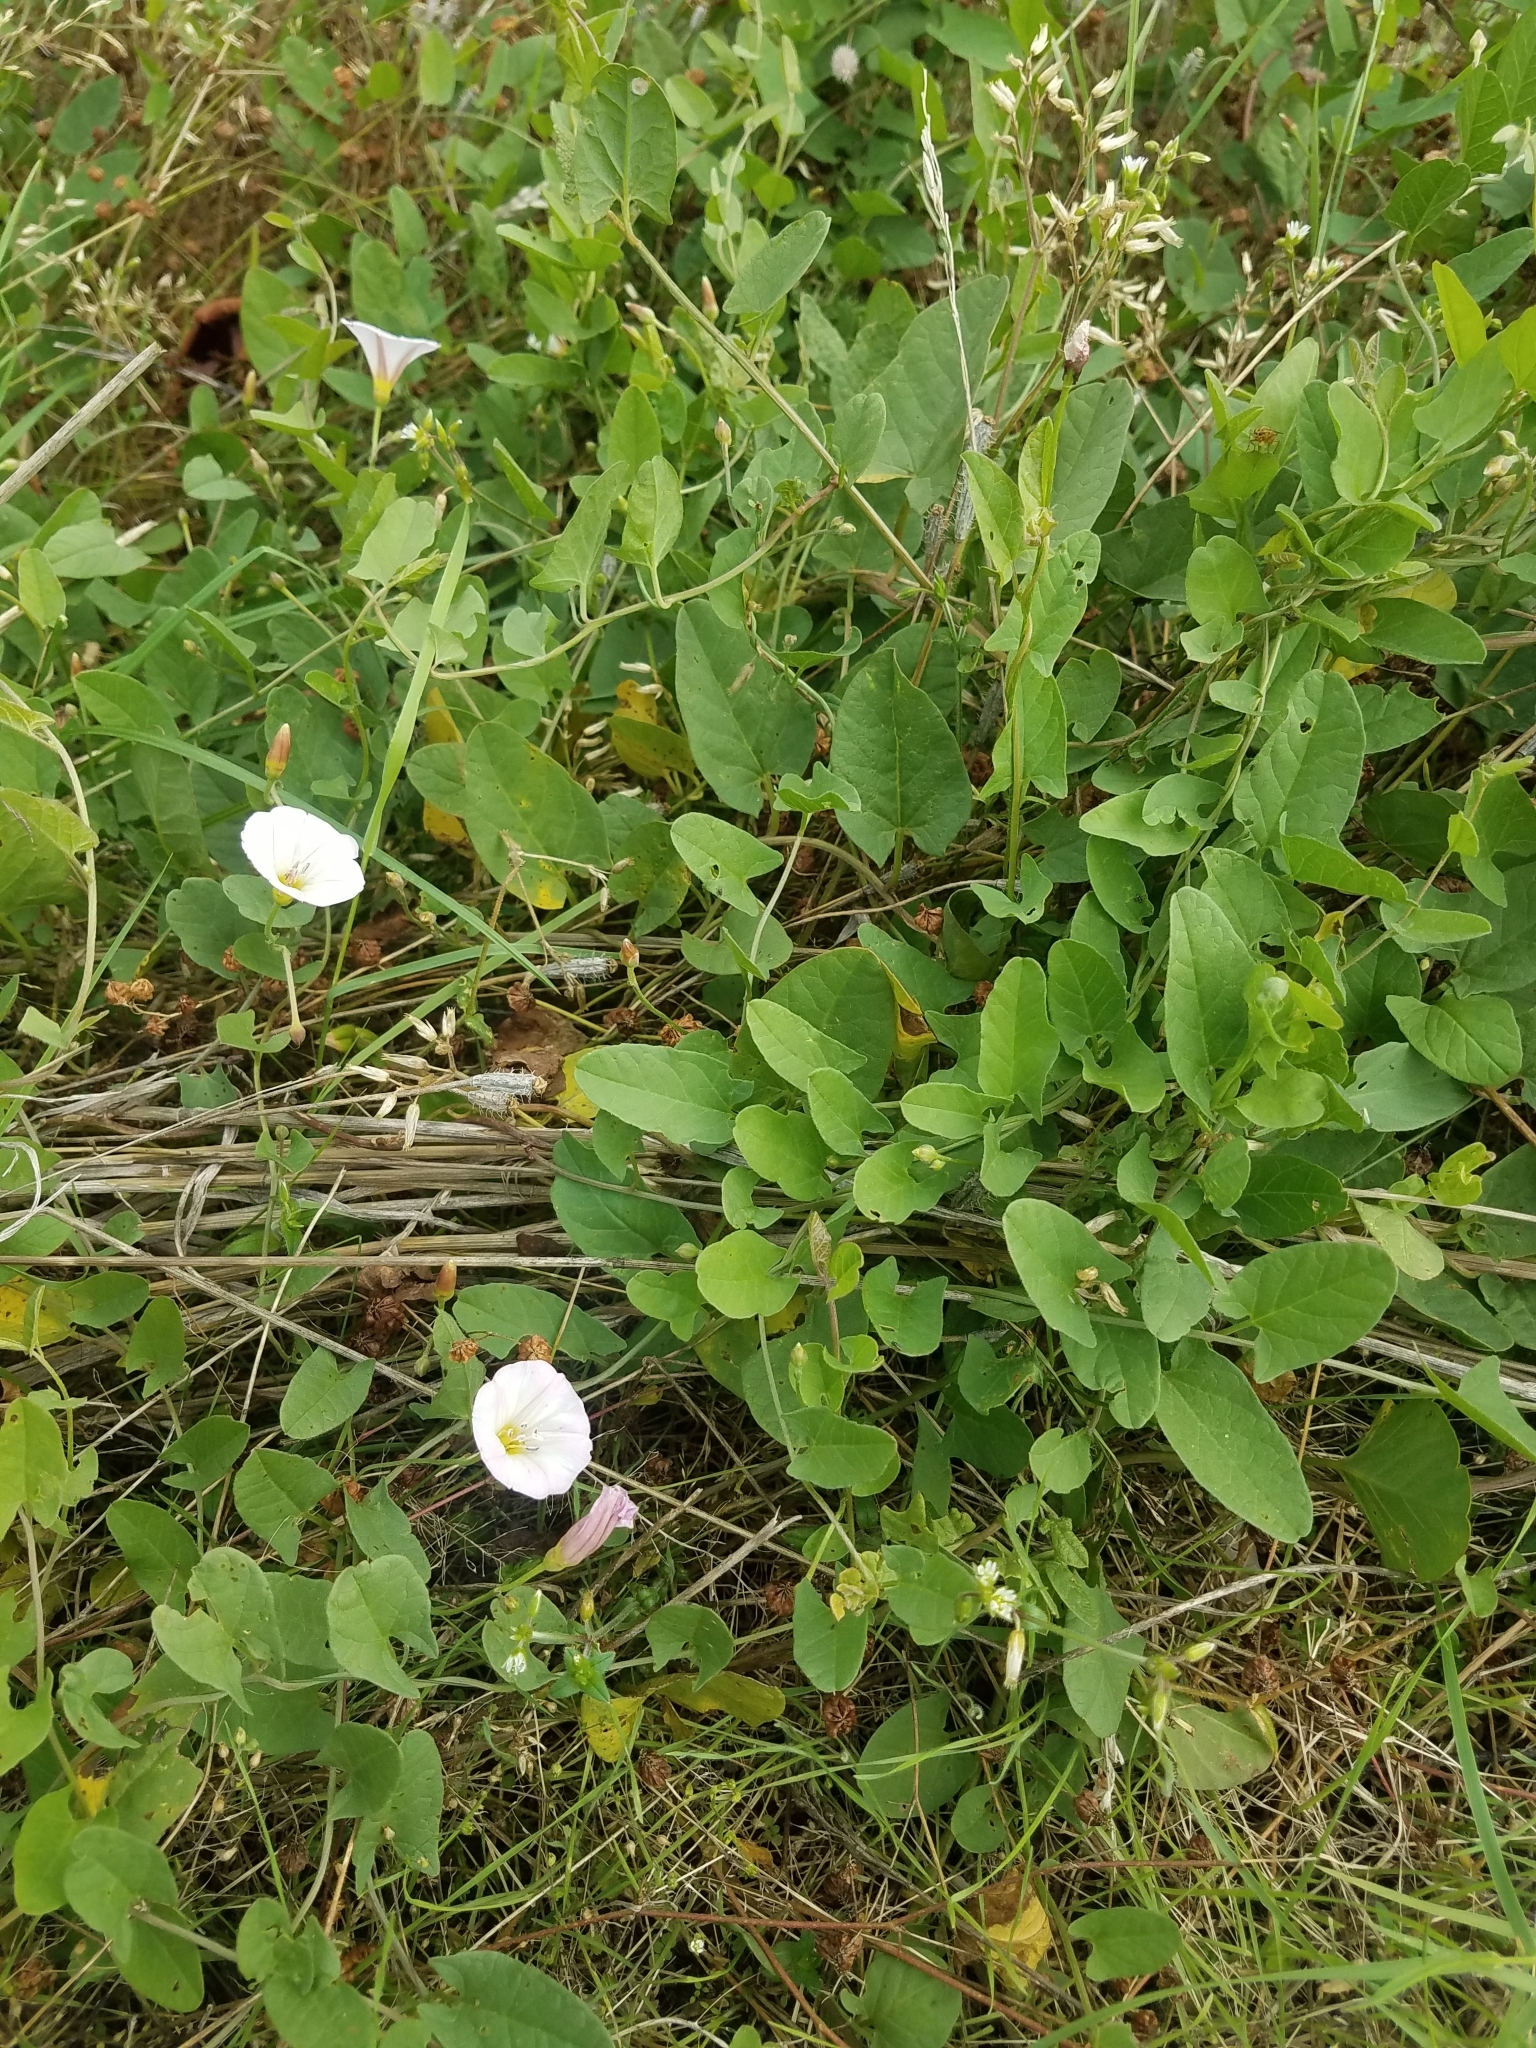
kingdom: Plantae
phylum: Tracheophyta
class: Magnoliopsida
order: Solanales
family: Convolvulaceae
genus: Convolvulus
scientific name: Convolvulus arvensis
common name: Field bindweed
